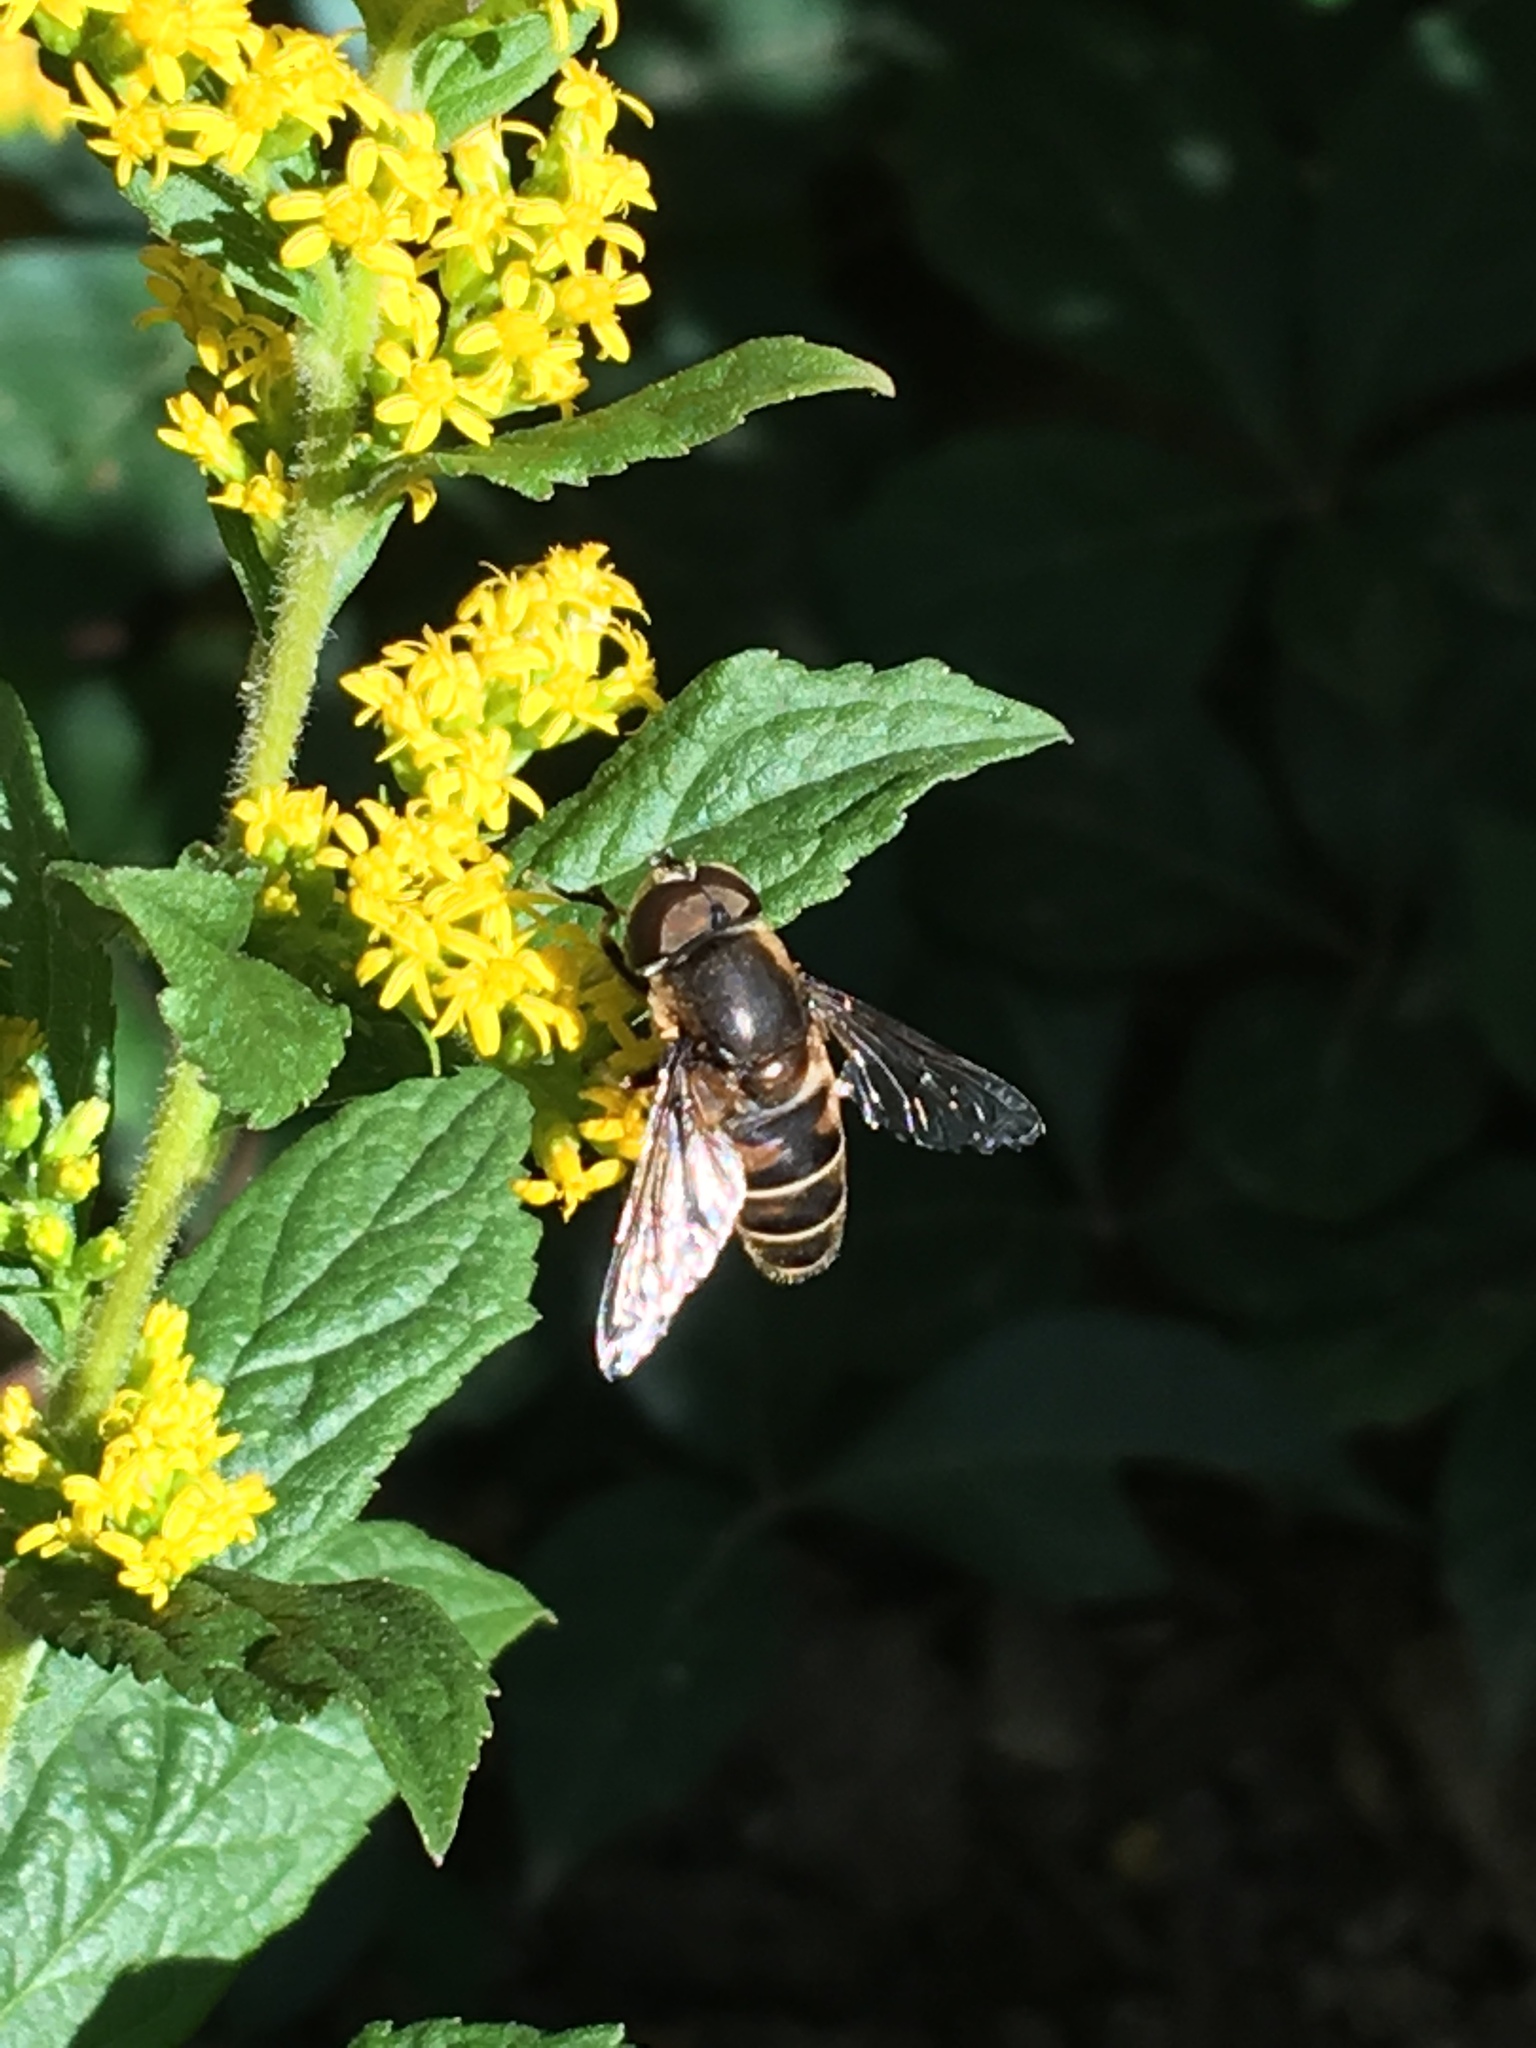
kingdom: Animalia
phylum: Arthropoda
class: Insecta
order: Diptera
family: Syrphidae
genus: Eristalis
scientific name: Eristalis dimidiata
